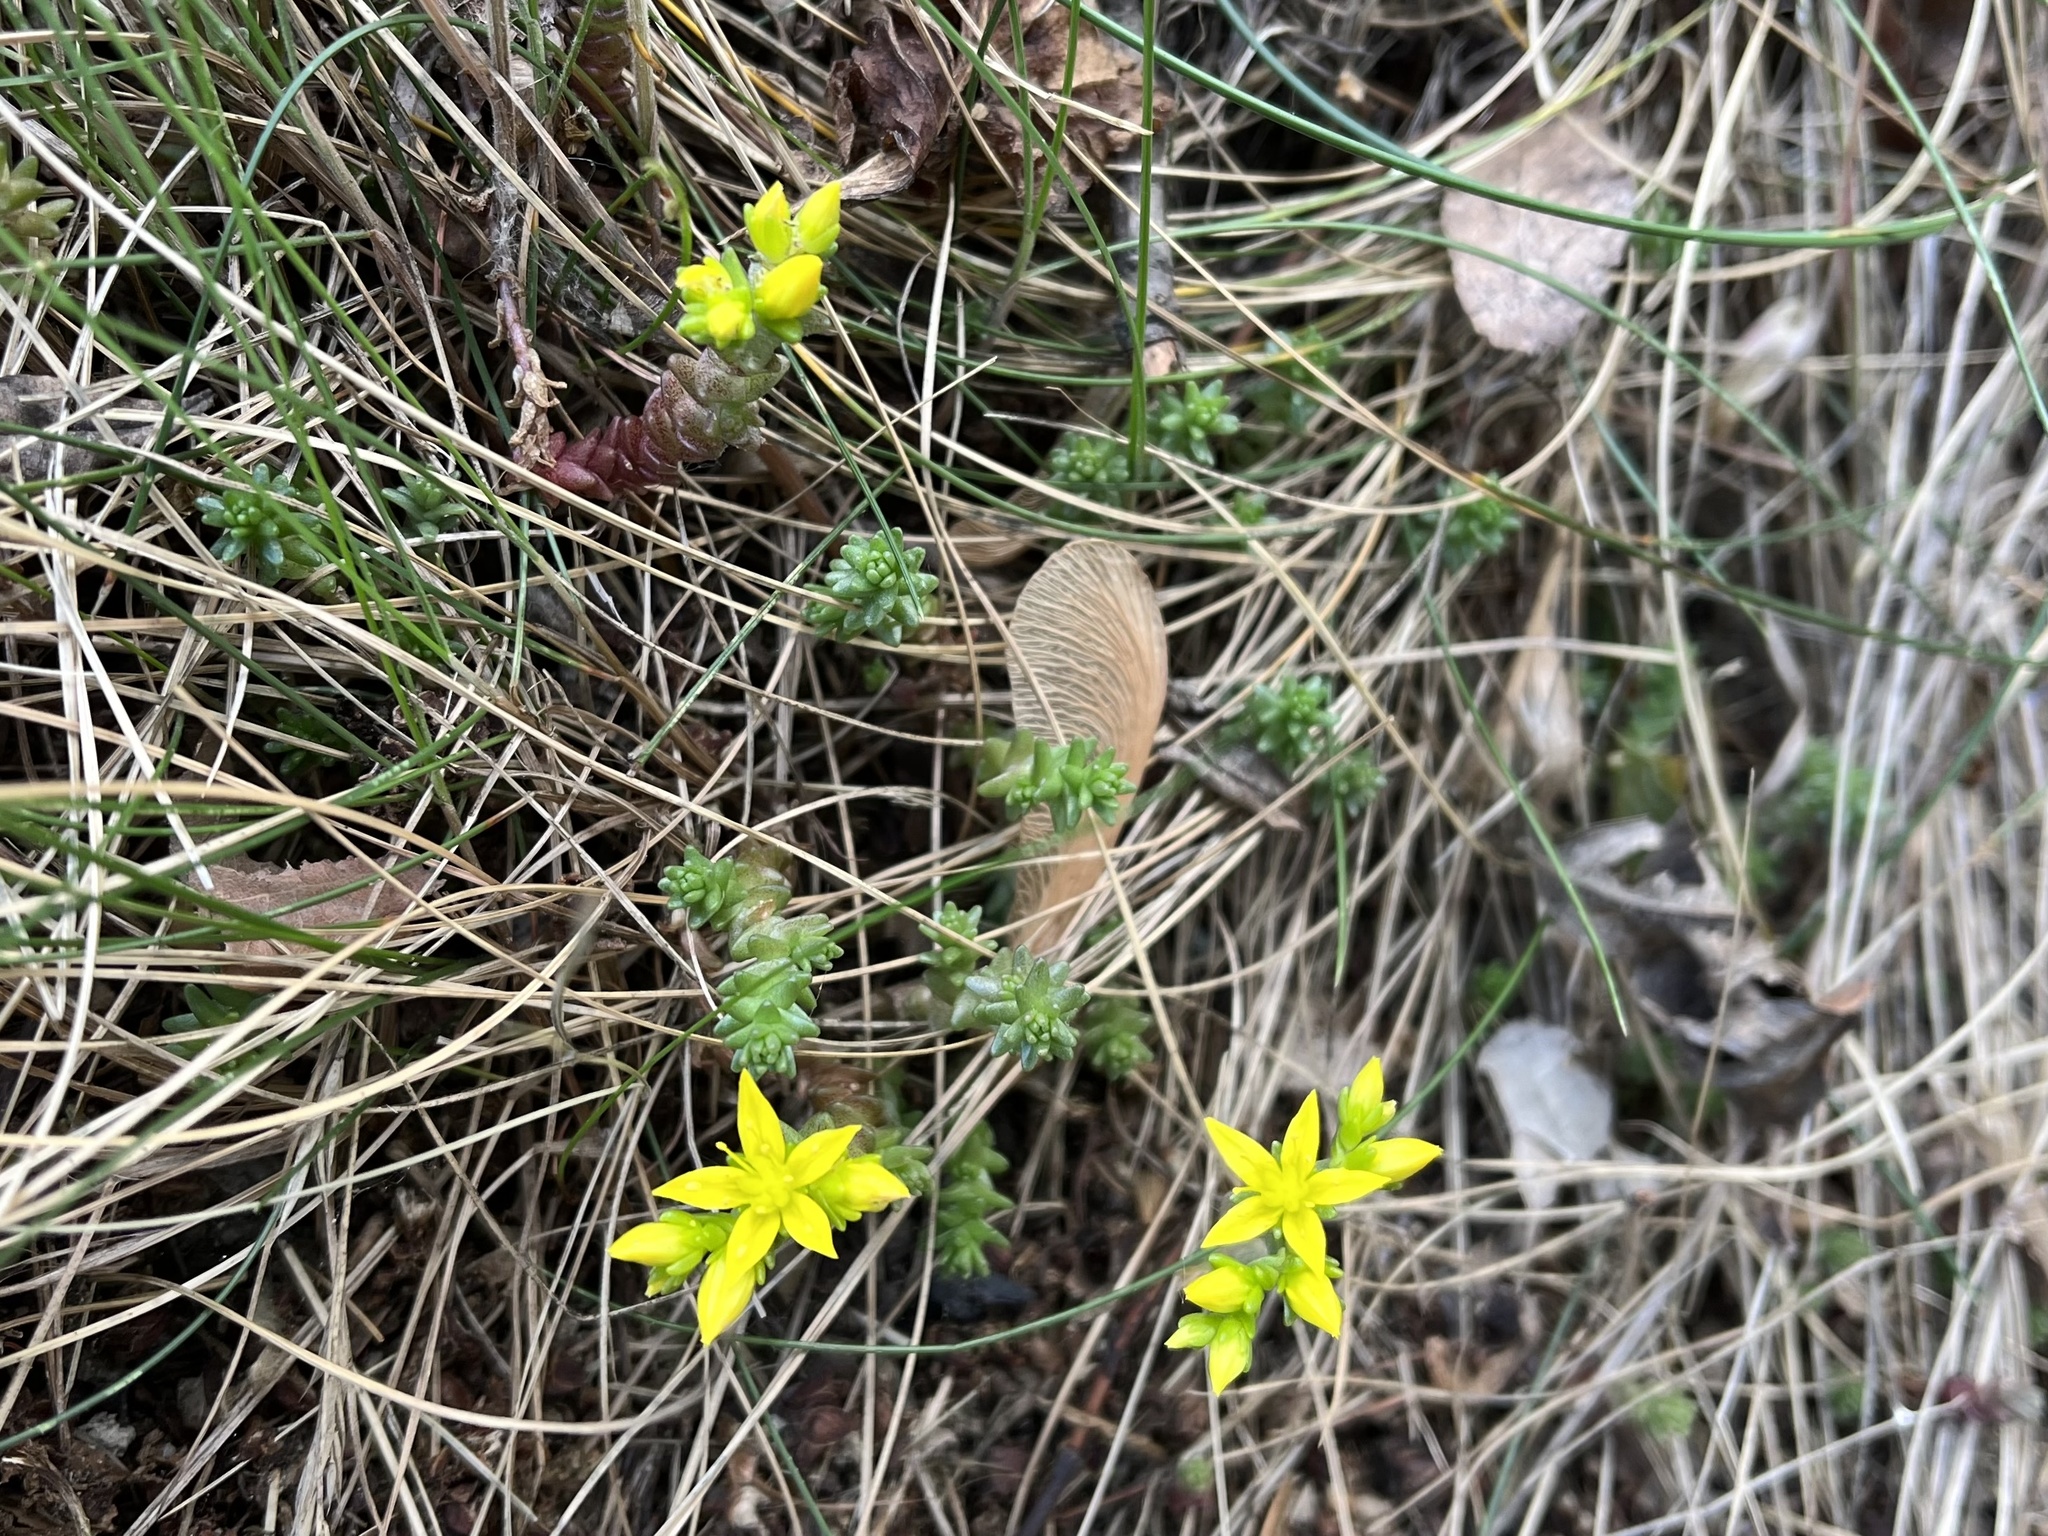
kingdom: Plantae
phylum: Tracheophyta
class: Magnoliopsida
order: Saxifragales
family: Crassulaceae
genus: Sedum
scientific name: Sedum acre
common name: Biting stonecrop
